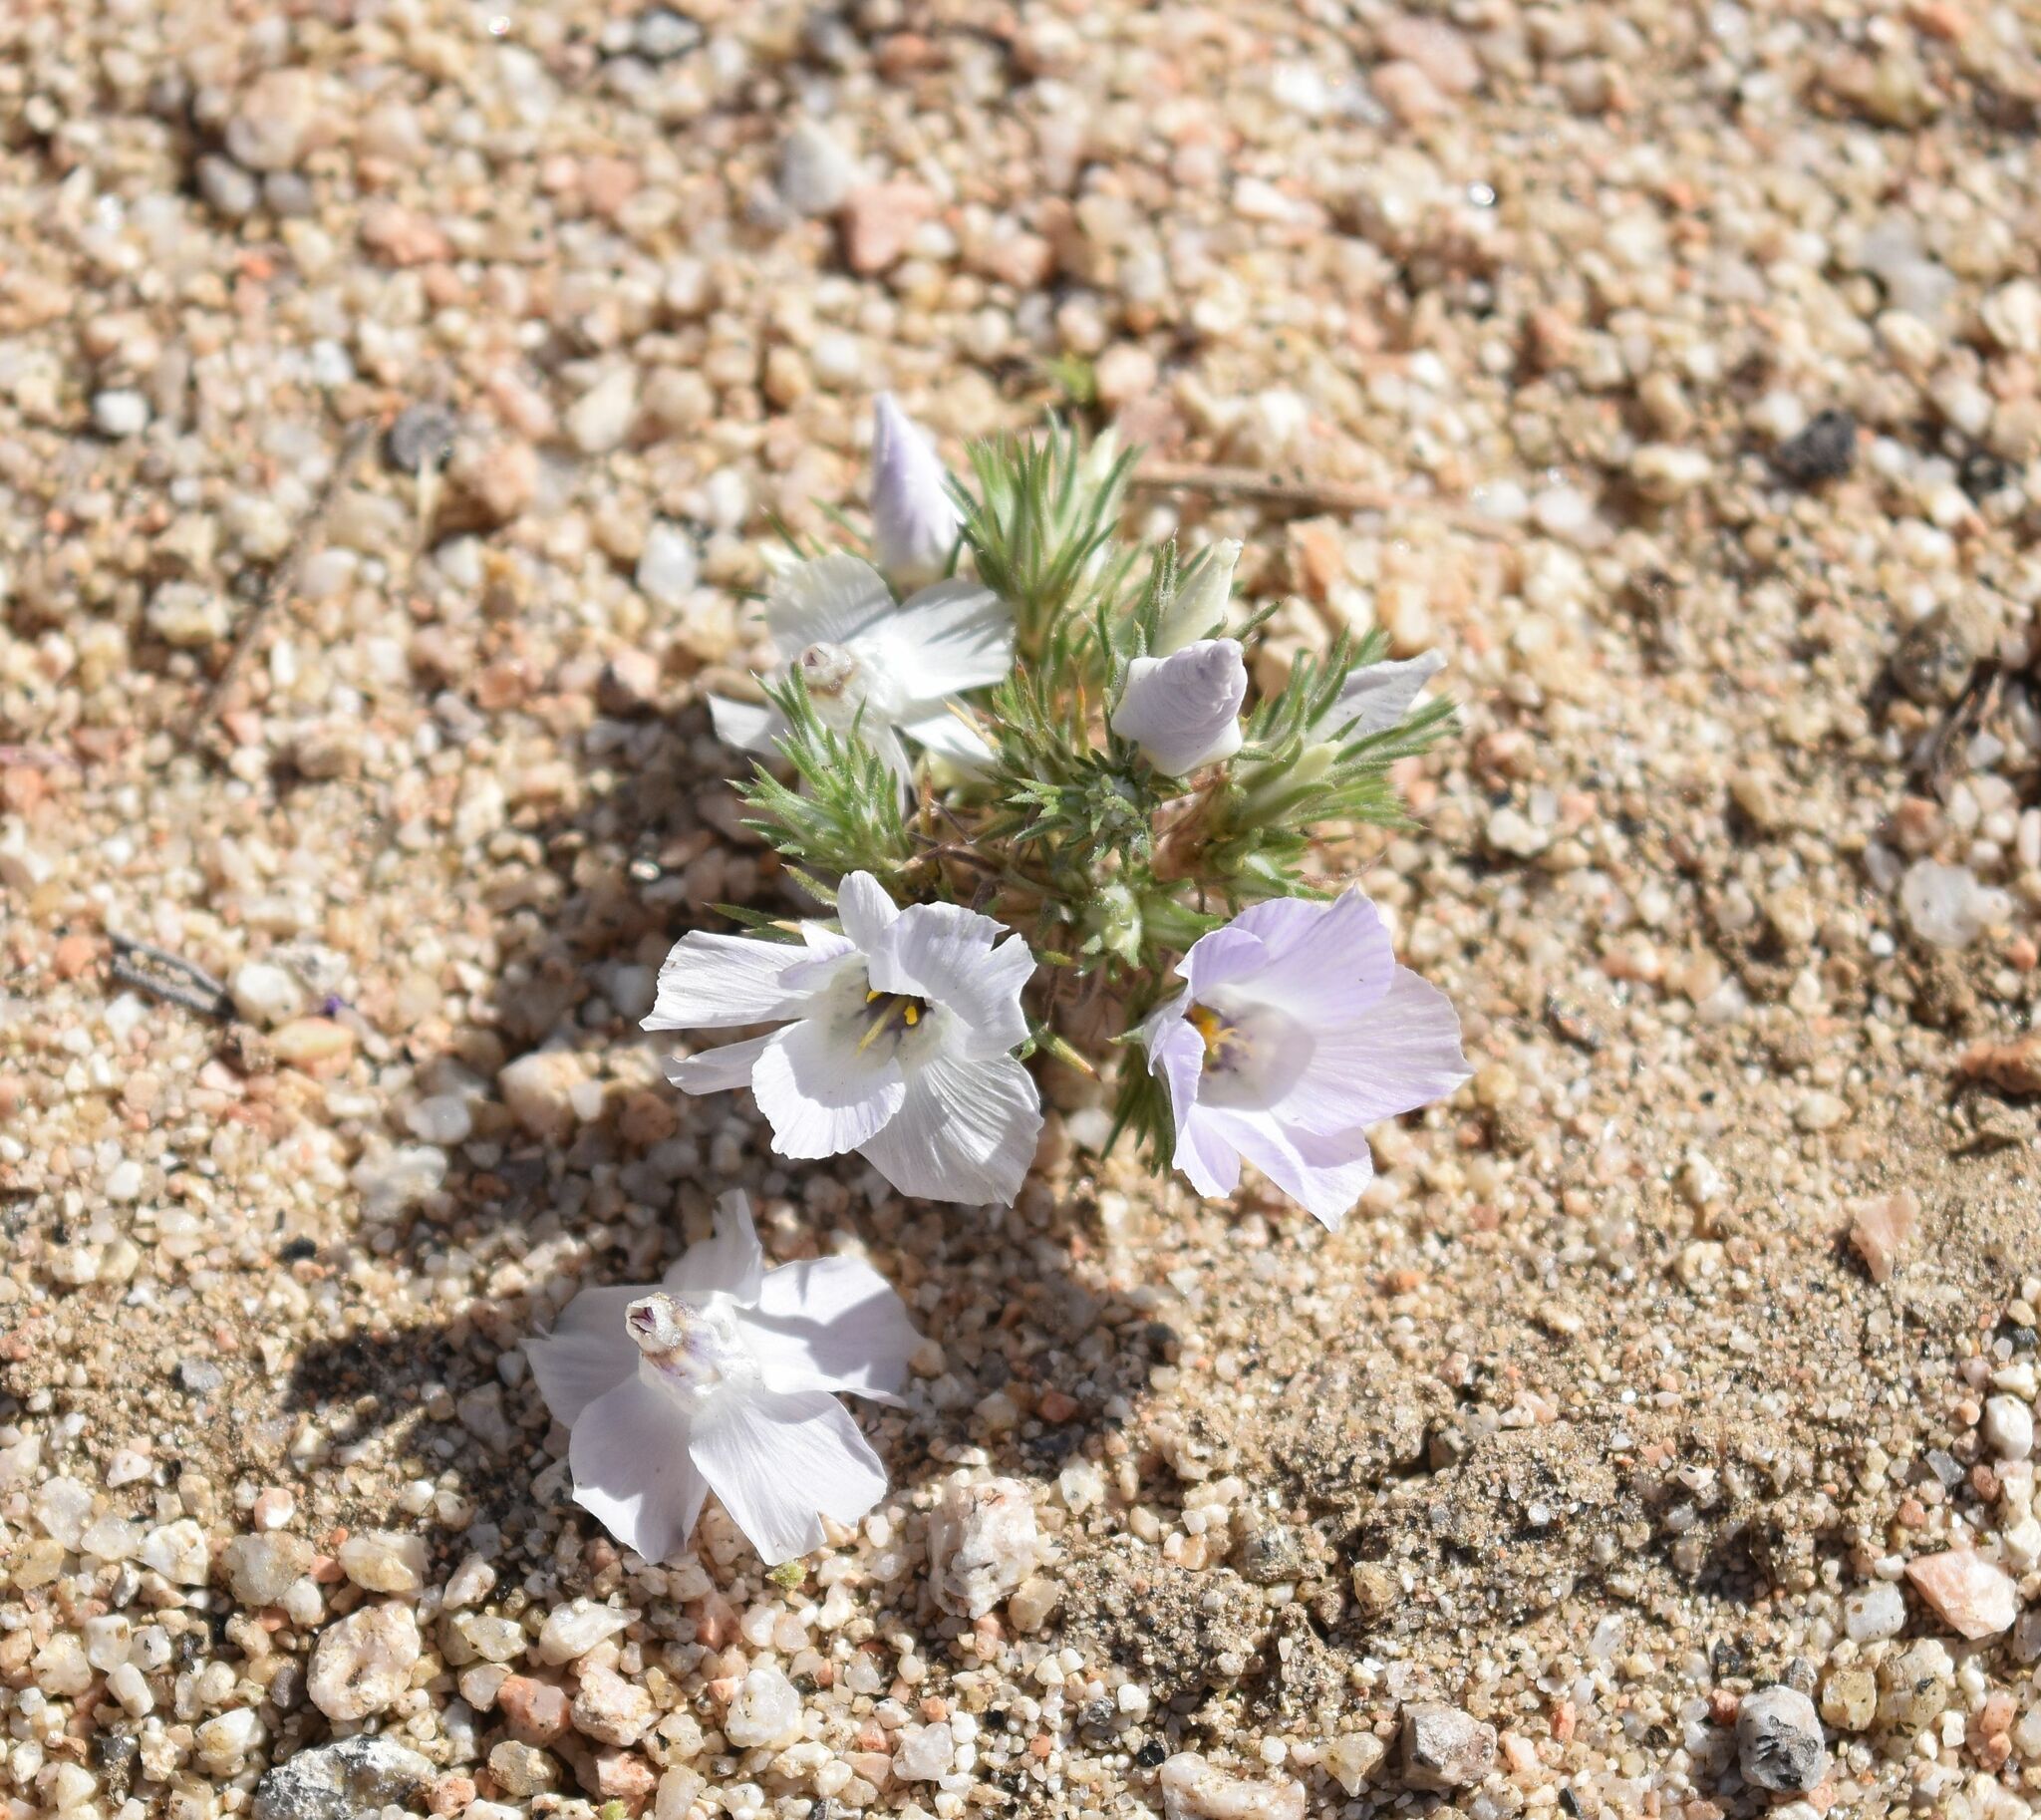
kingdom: Plantae
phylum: Tracheophyta
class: Magnoliopsida
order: Ericales
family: Polemoniaceae
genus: Linanthus
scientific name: Linanthus parryae
